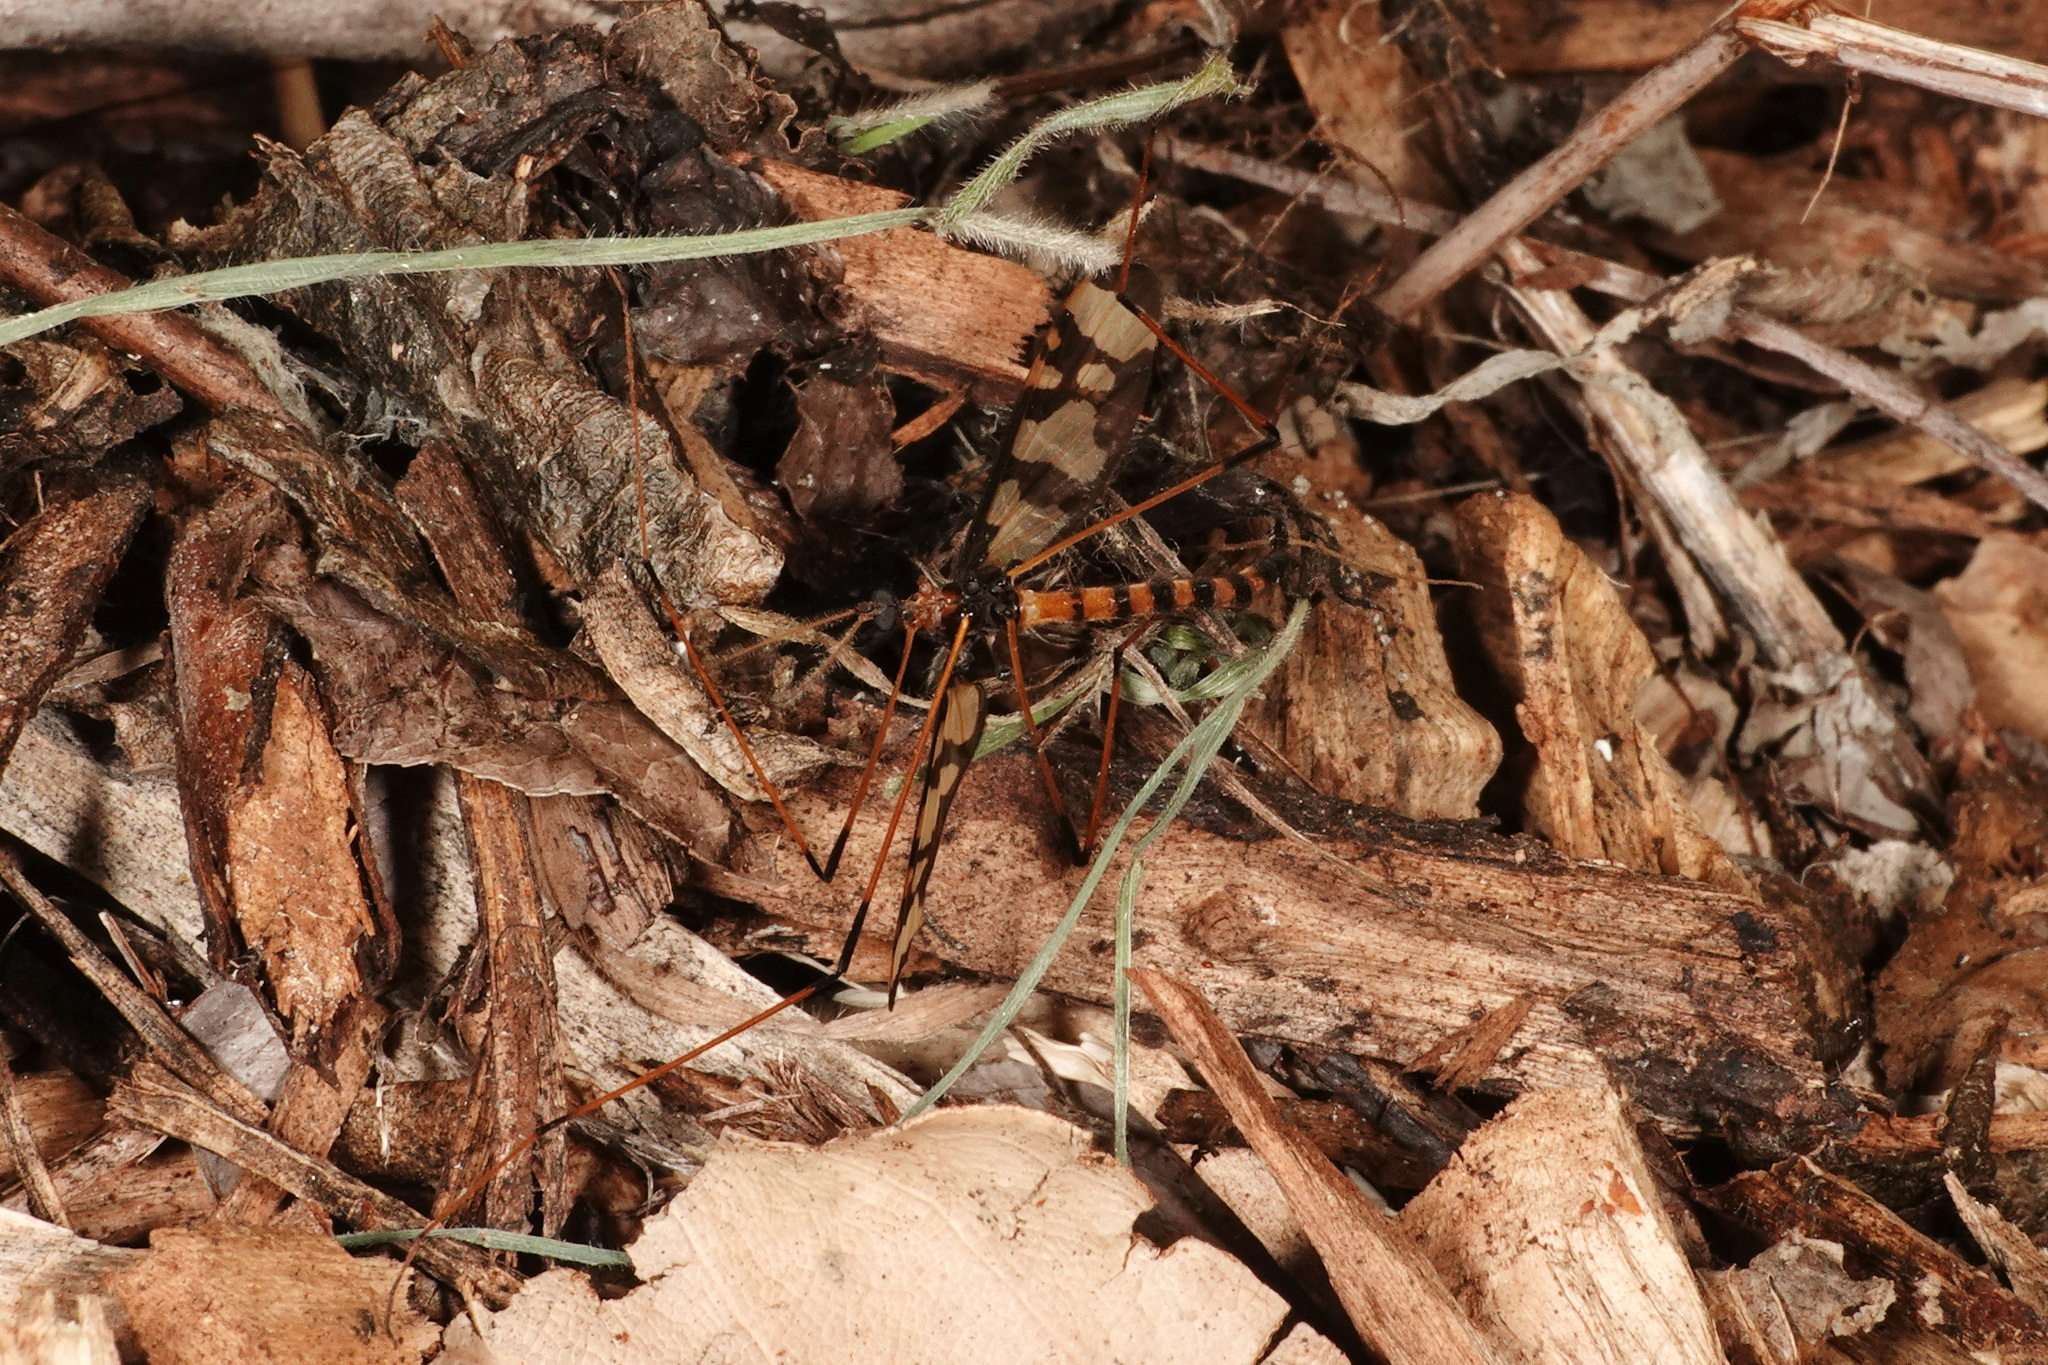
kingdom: Animalia
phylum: Arthropoda
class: Insecta
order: Diptera
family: Limoniidae
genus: Sigmatomera
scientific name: Sigmatomera victoriae
